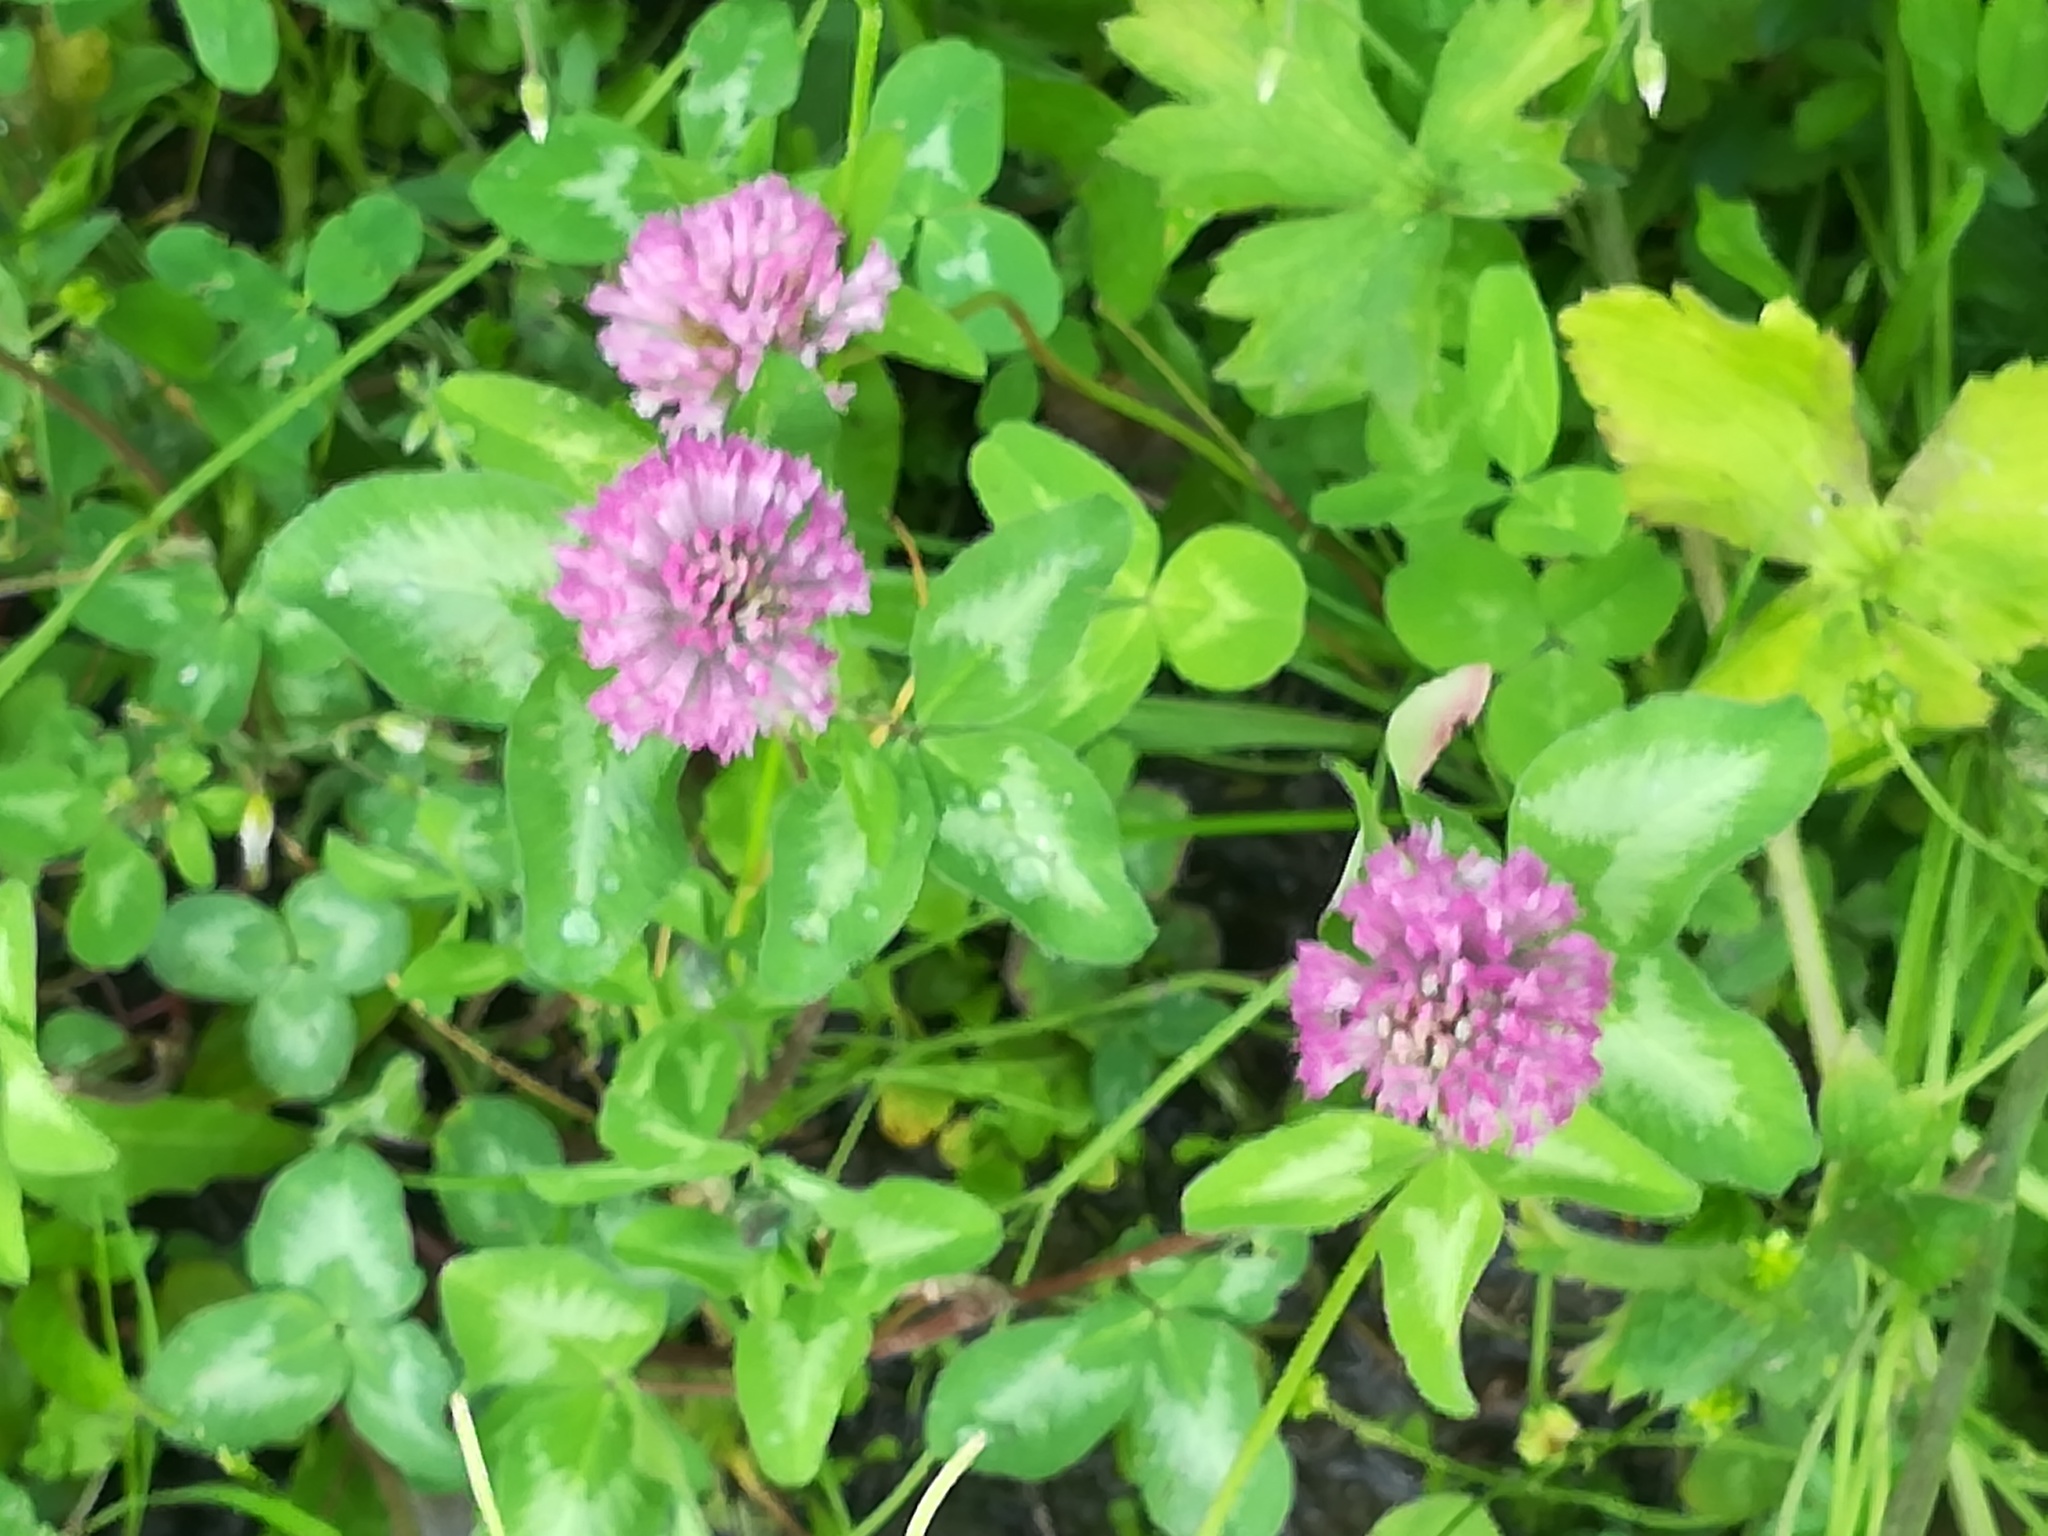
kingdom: Plantae
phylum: Tracheophyta
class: Magnoliopsida
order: Fabales
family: Fabaceae
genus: Trifolium
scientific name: Trifolium pratense
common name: Red clover
